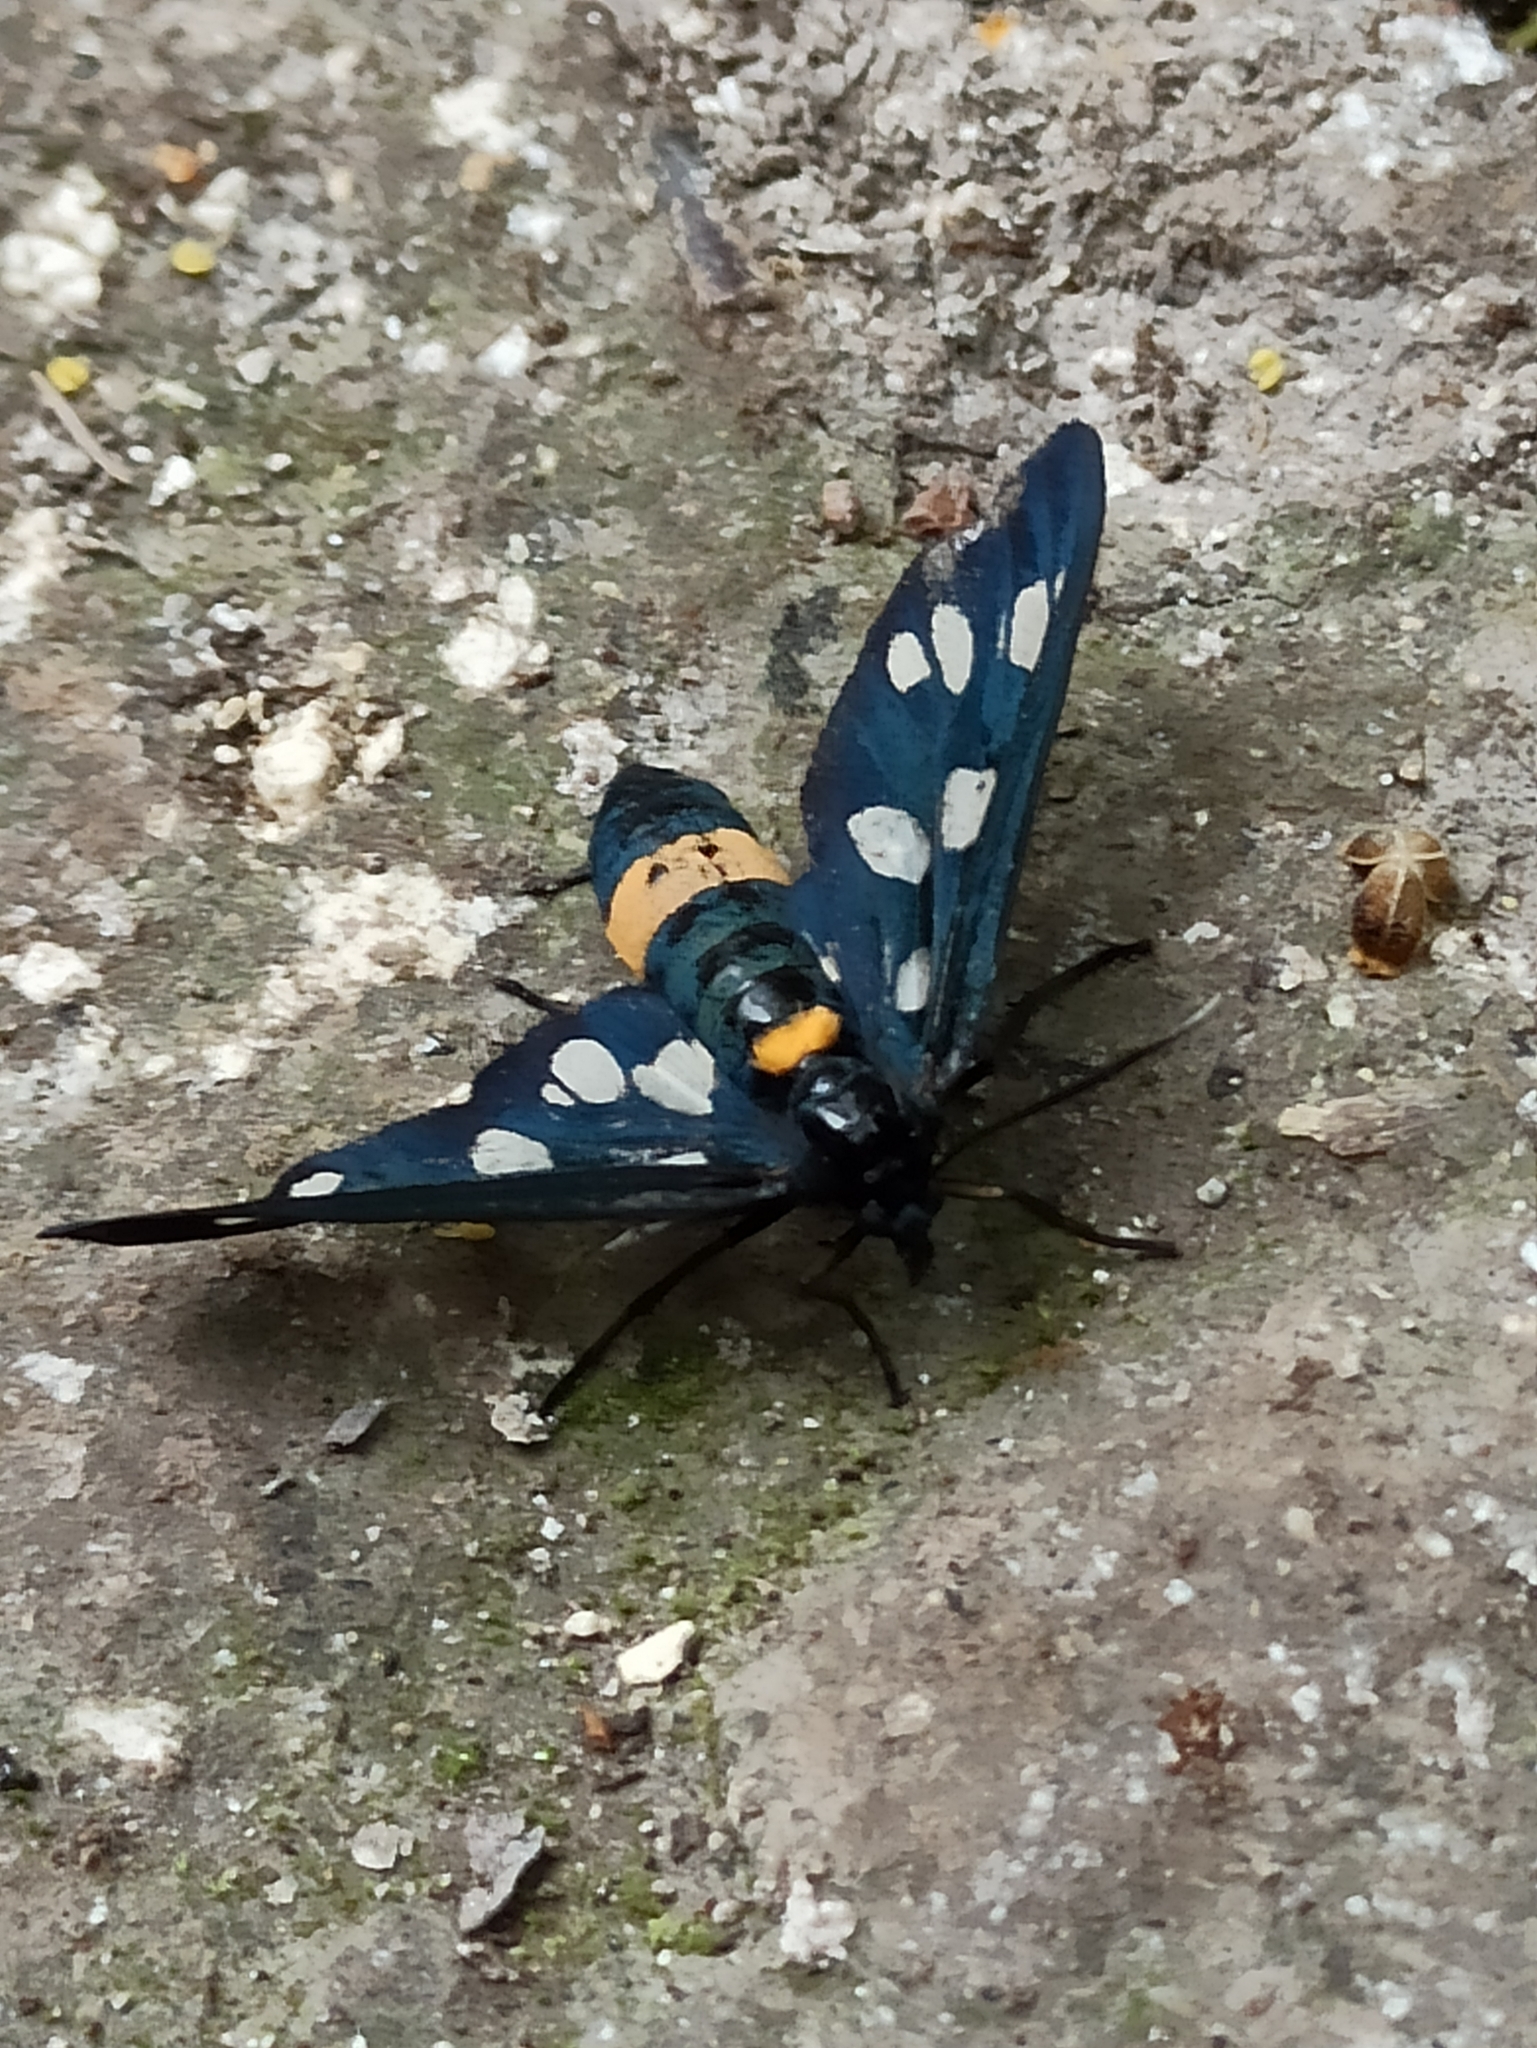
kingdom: Animalia
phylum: Arthropoda
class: Insecta
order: Lepidoptera
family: Erebidae
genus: Amata
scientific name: Amata phegea
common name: Nine-spotted
